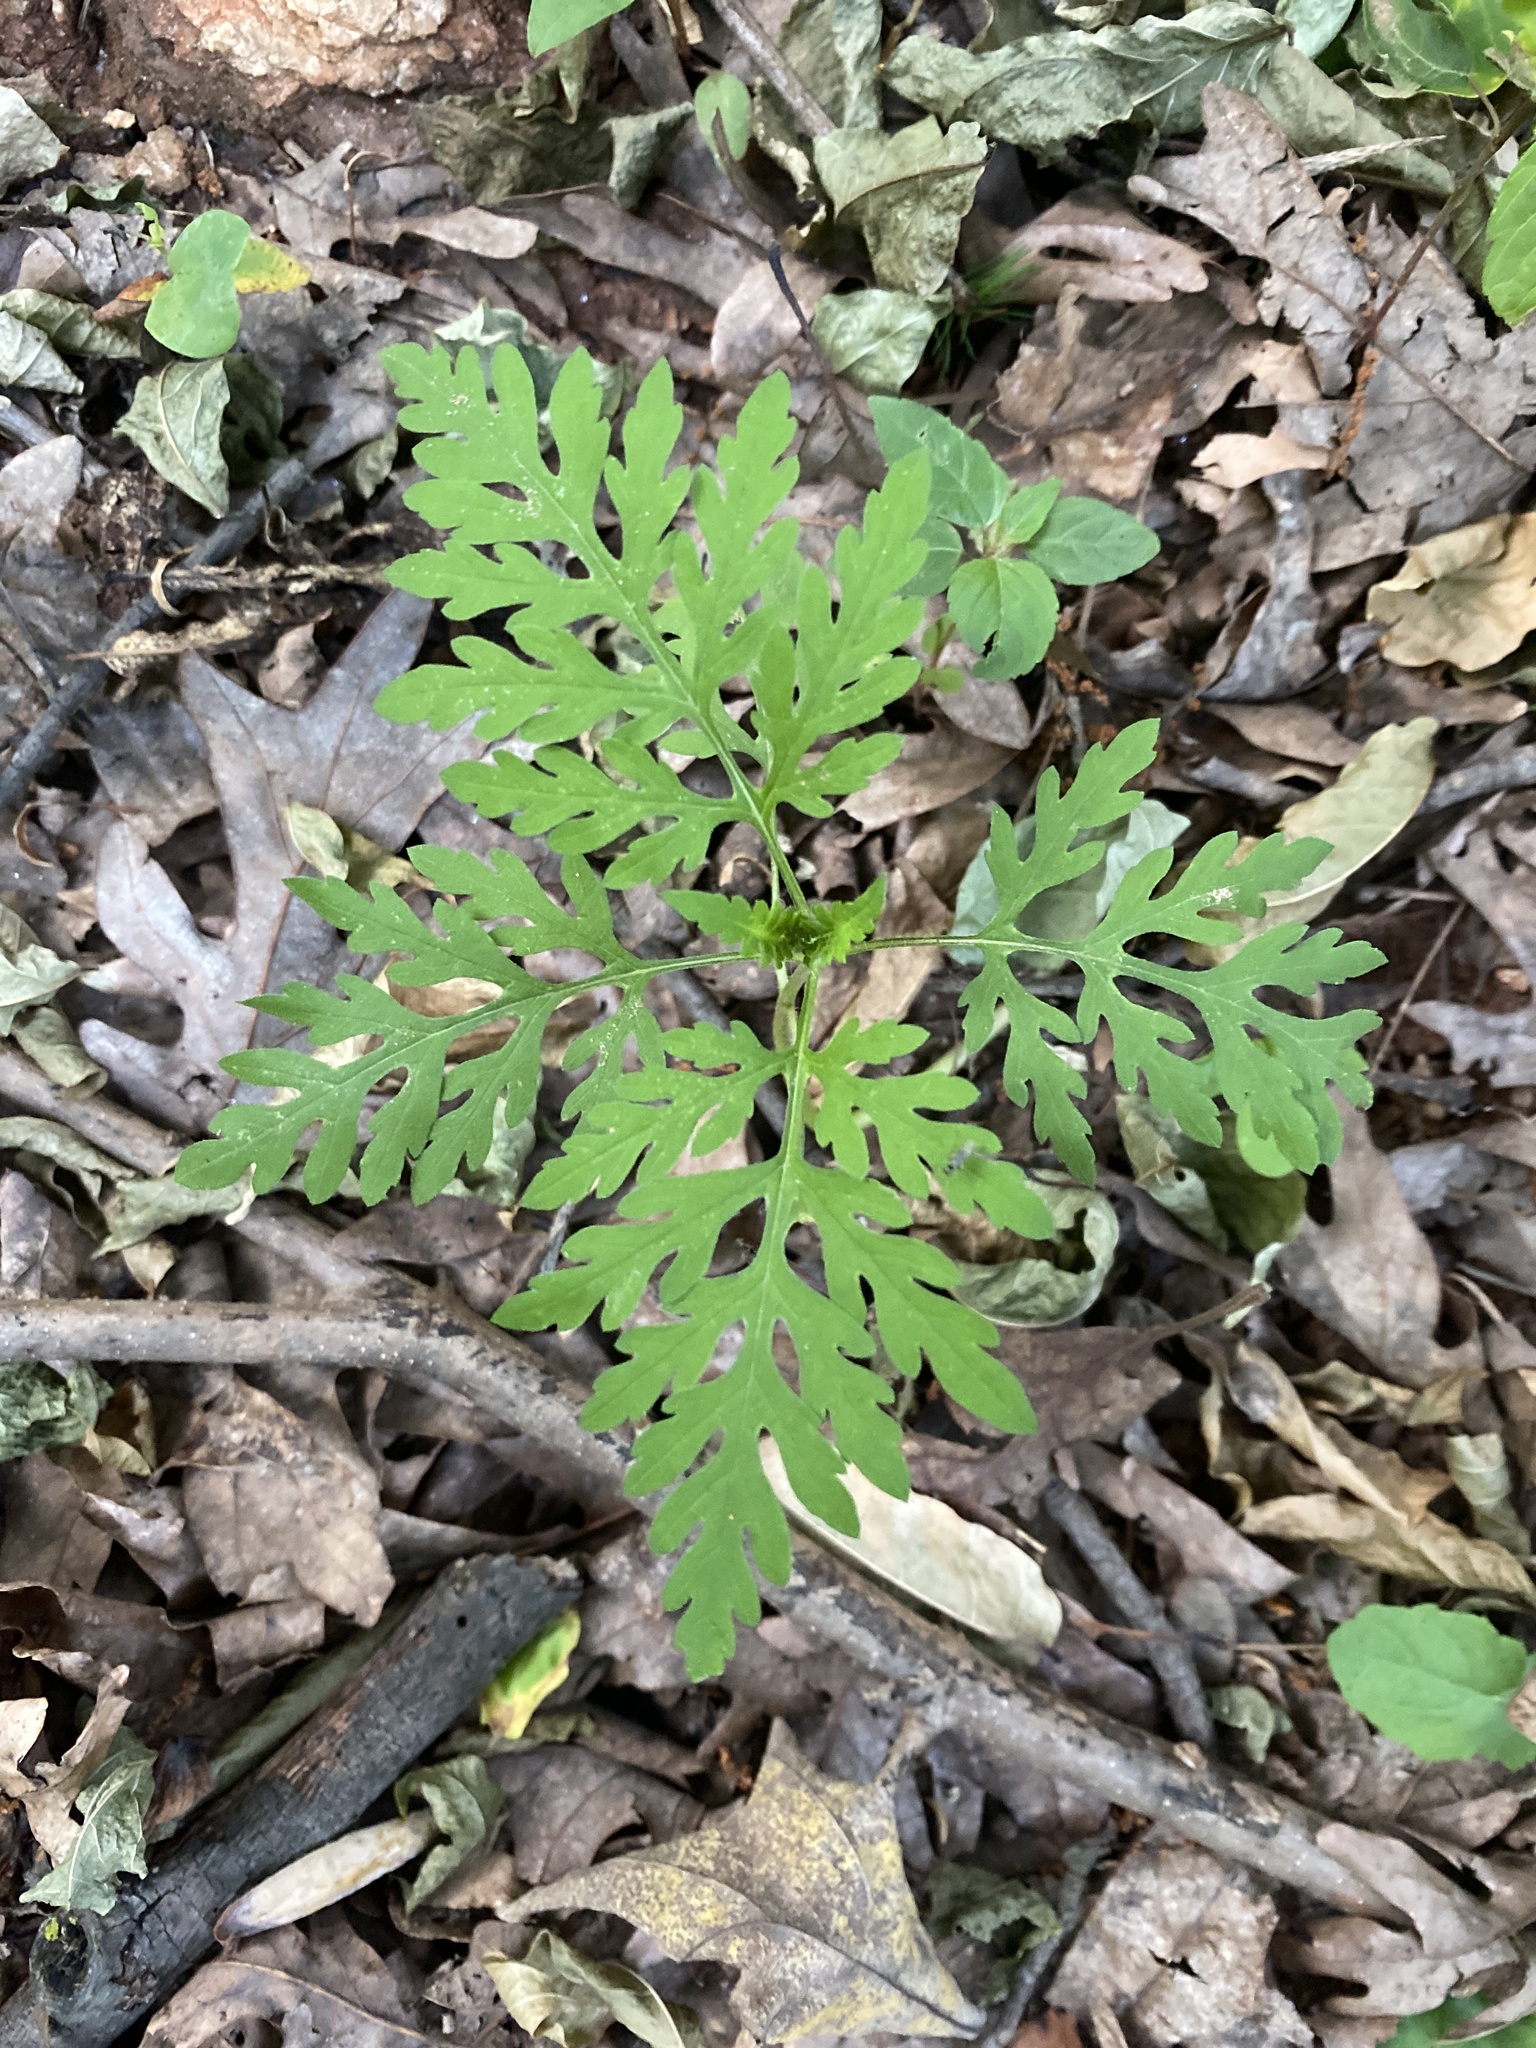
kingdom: Plantae
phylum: Tracheophyta
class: Magnoliopsida
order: Asterales
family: Asteraceae
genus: Ambrosia
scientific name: Ambrosia artemisiifolia
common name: Annual ragweed
